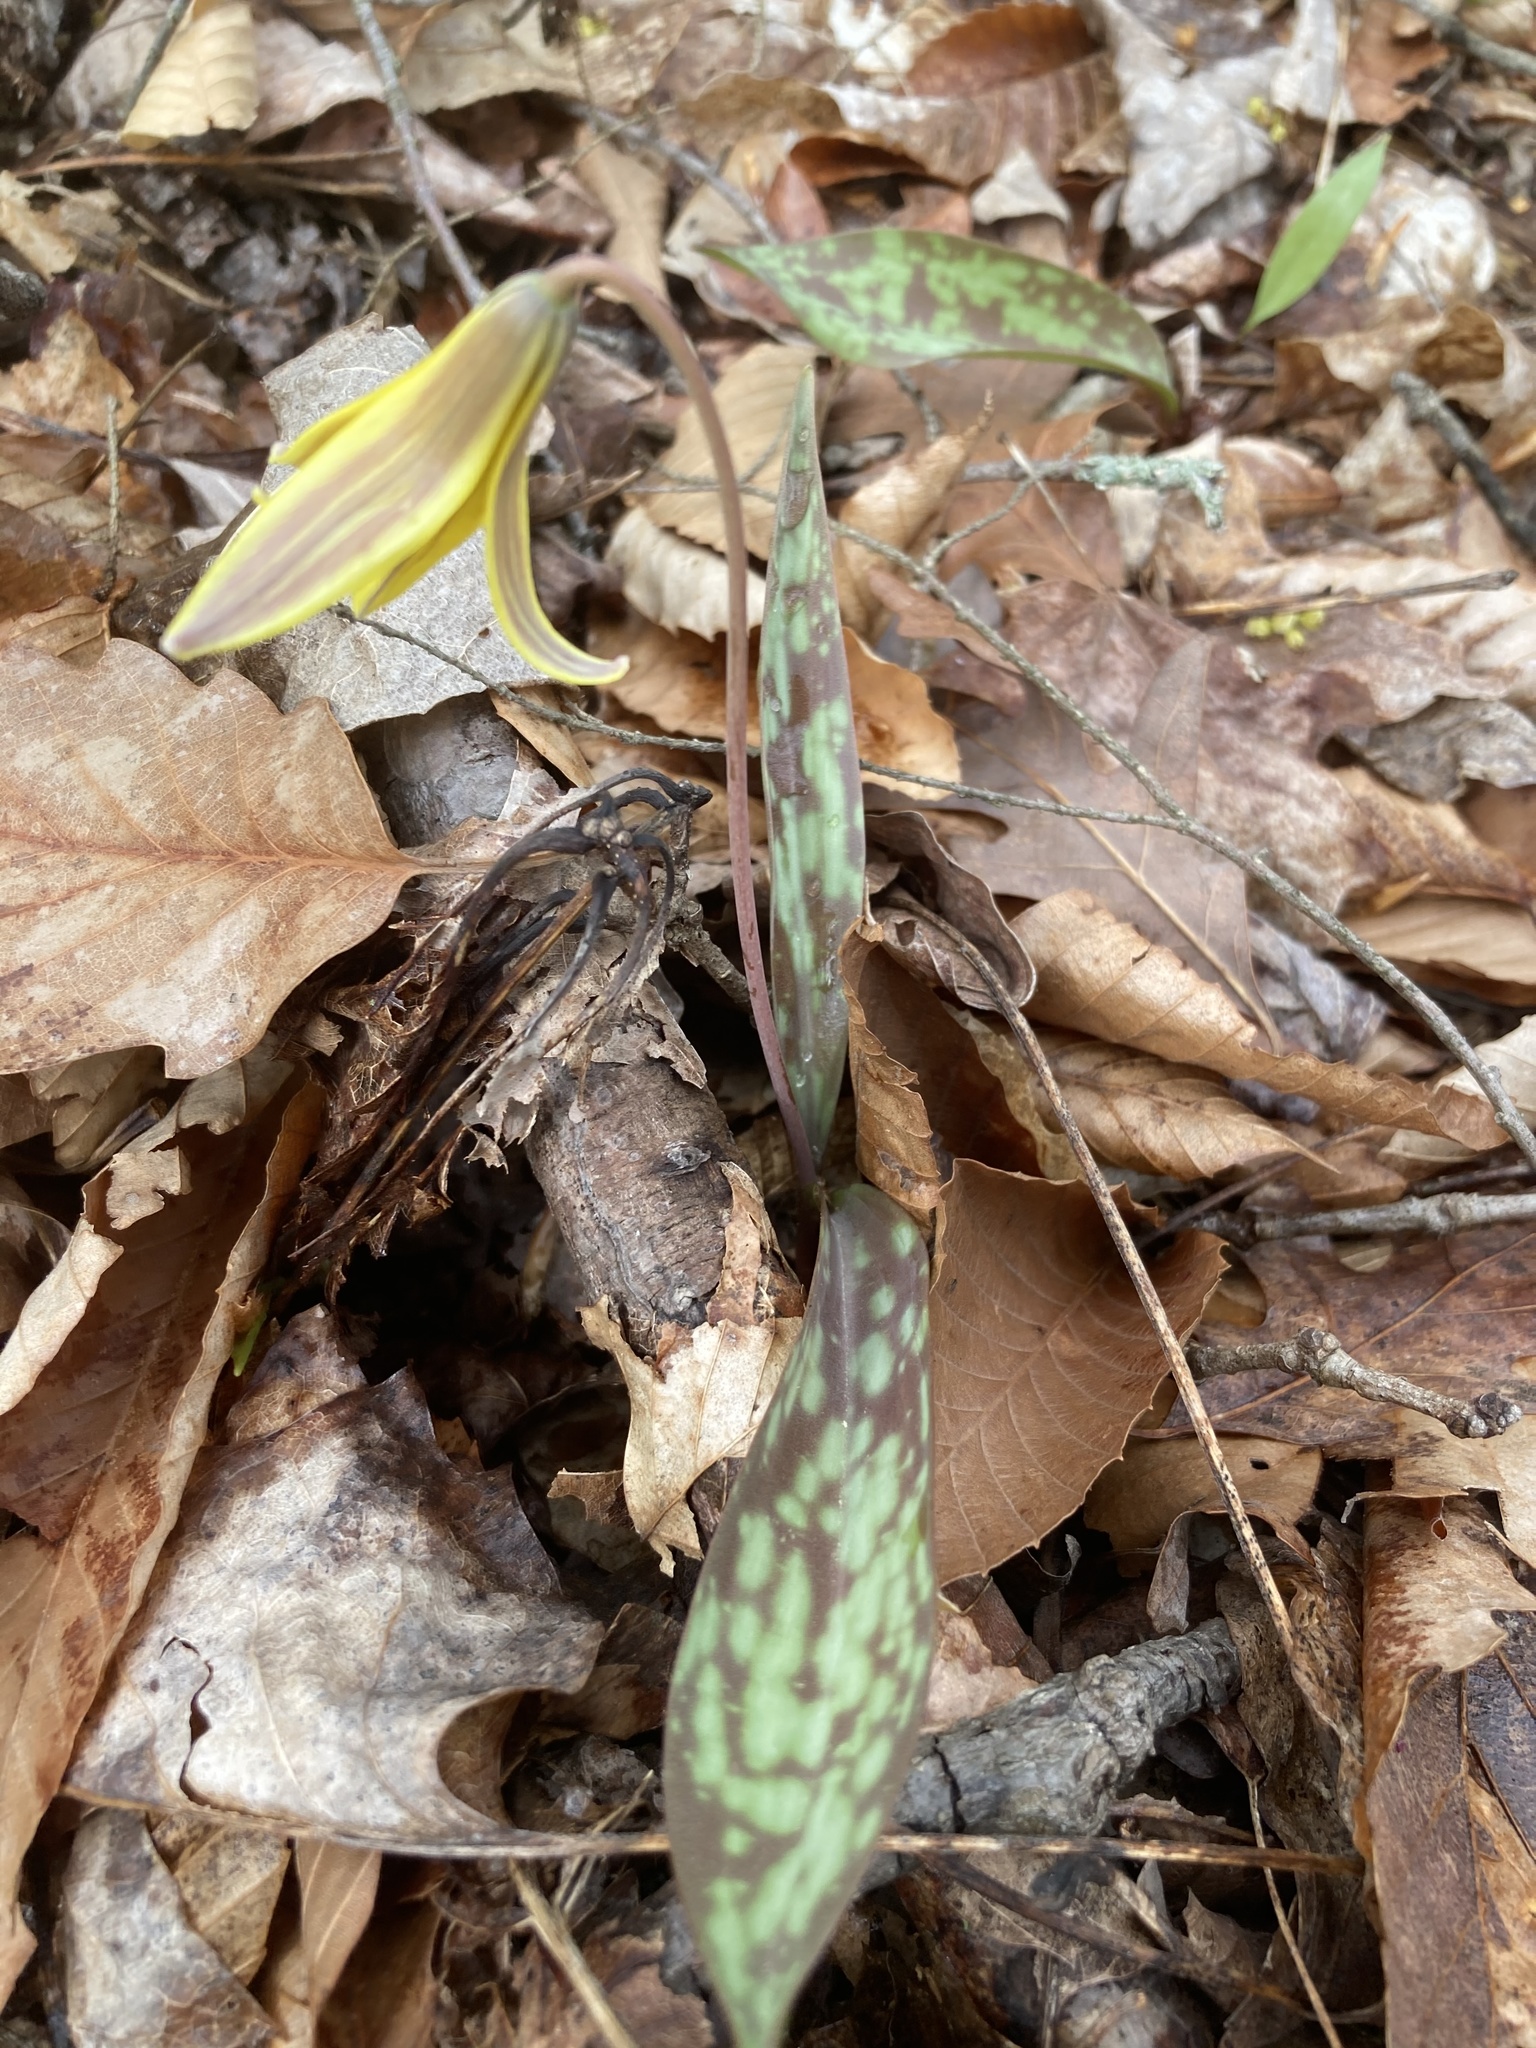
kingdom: Plantae
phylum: Tracheophyta
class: Liliopsida
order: Liliales
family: Liliaceae
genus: Erythronium
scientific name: Erythronium americanum
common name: Yellow adder's-tongue
